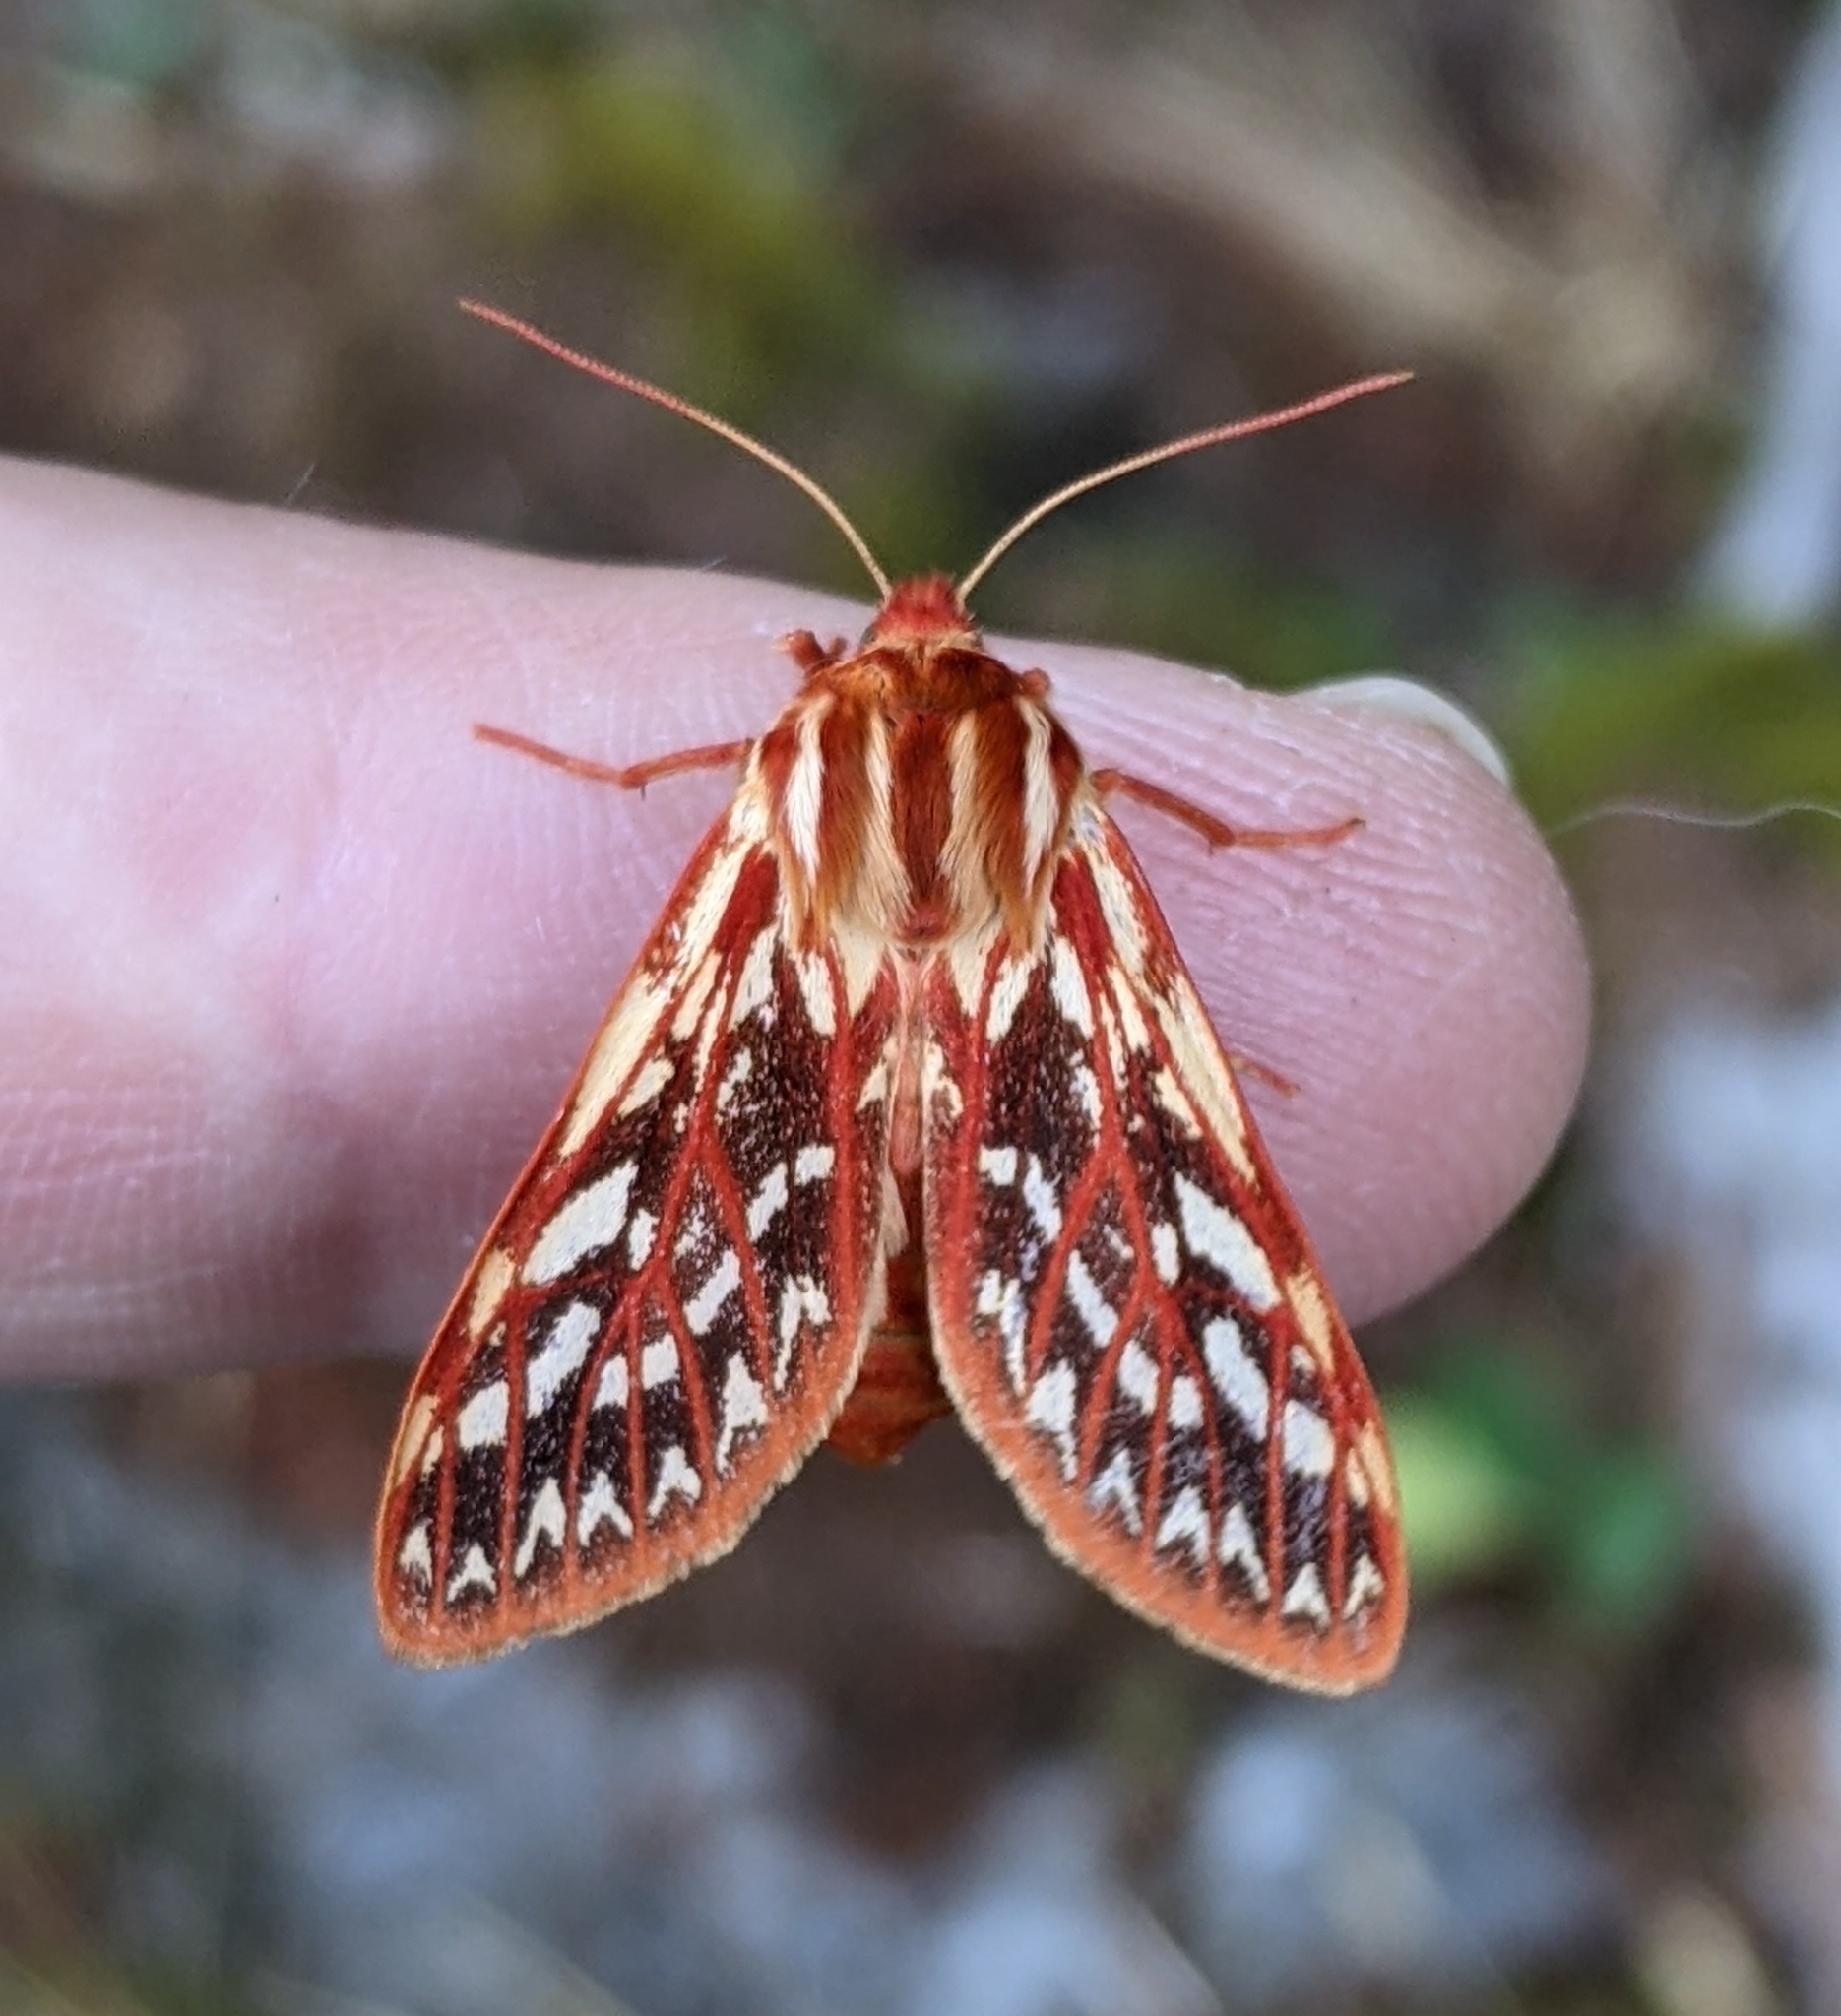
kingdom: Animalia
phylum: Arthropoda
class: Insecta
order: Lepidoptera
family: Erebidae
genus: Lophocampa
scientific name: Lophocampa roseata
